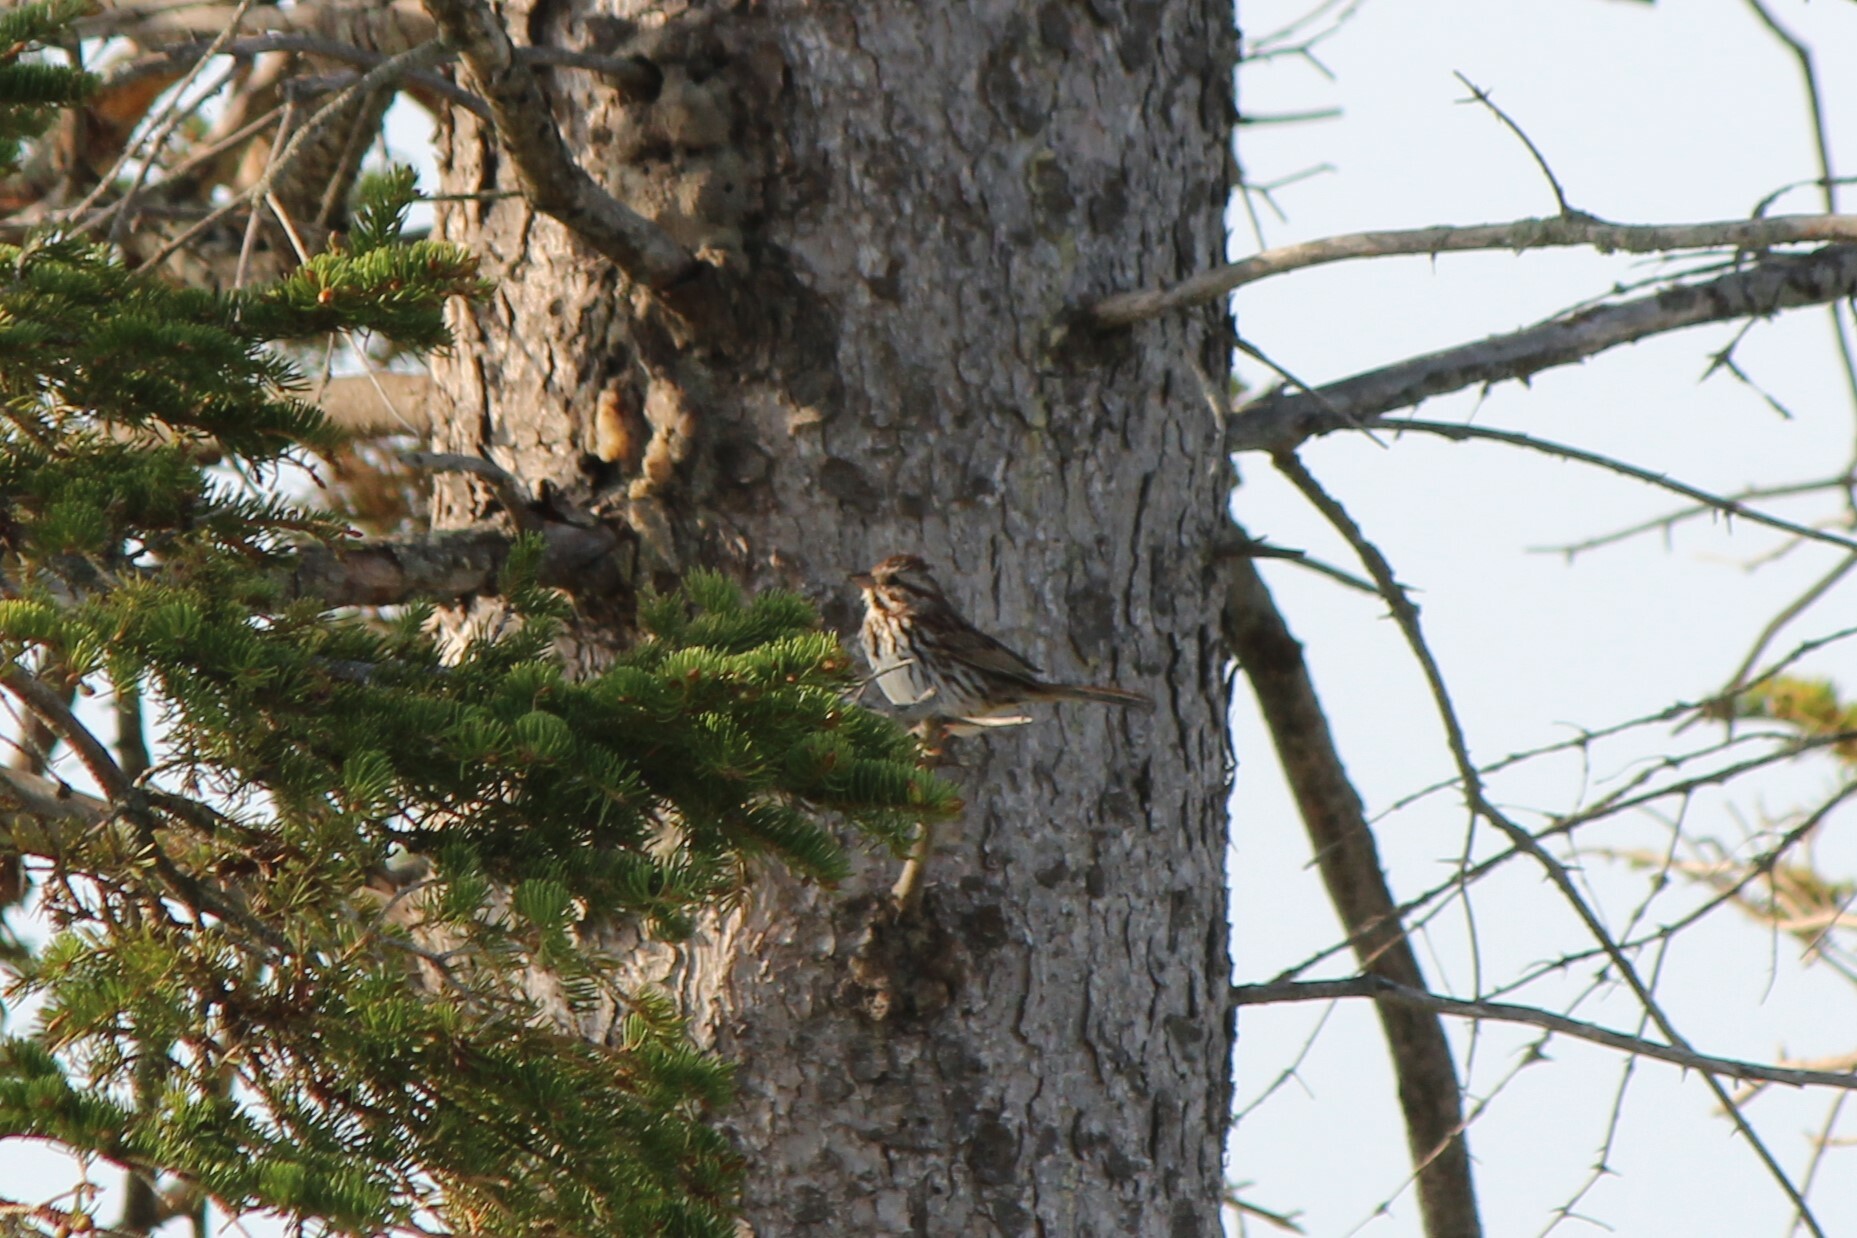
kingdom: Animalia
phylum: Chordata
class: Aves
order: Passeriformes
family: Passerellidae
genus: Melospiza
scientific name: Melospiza melodia
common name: Song sparrow
